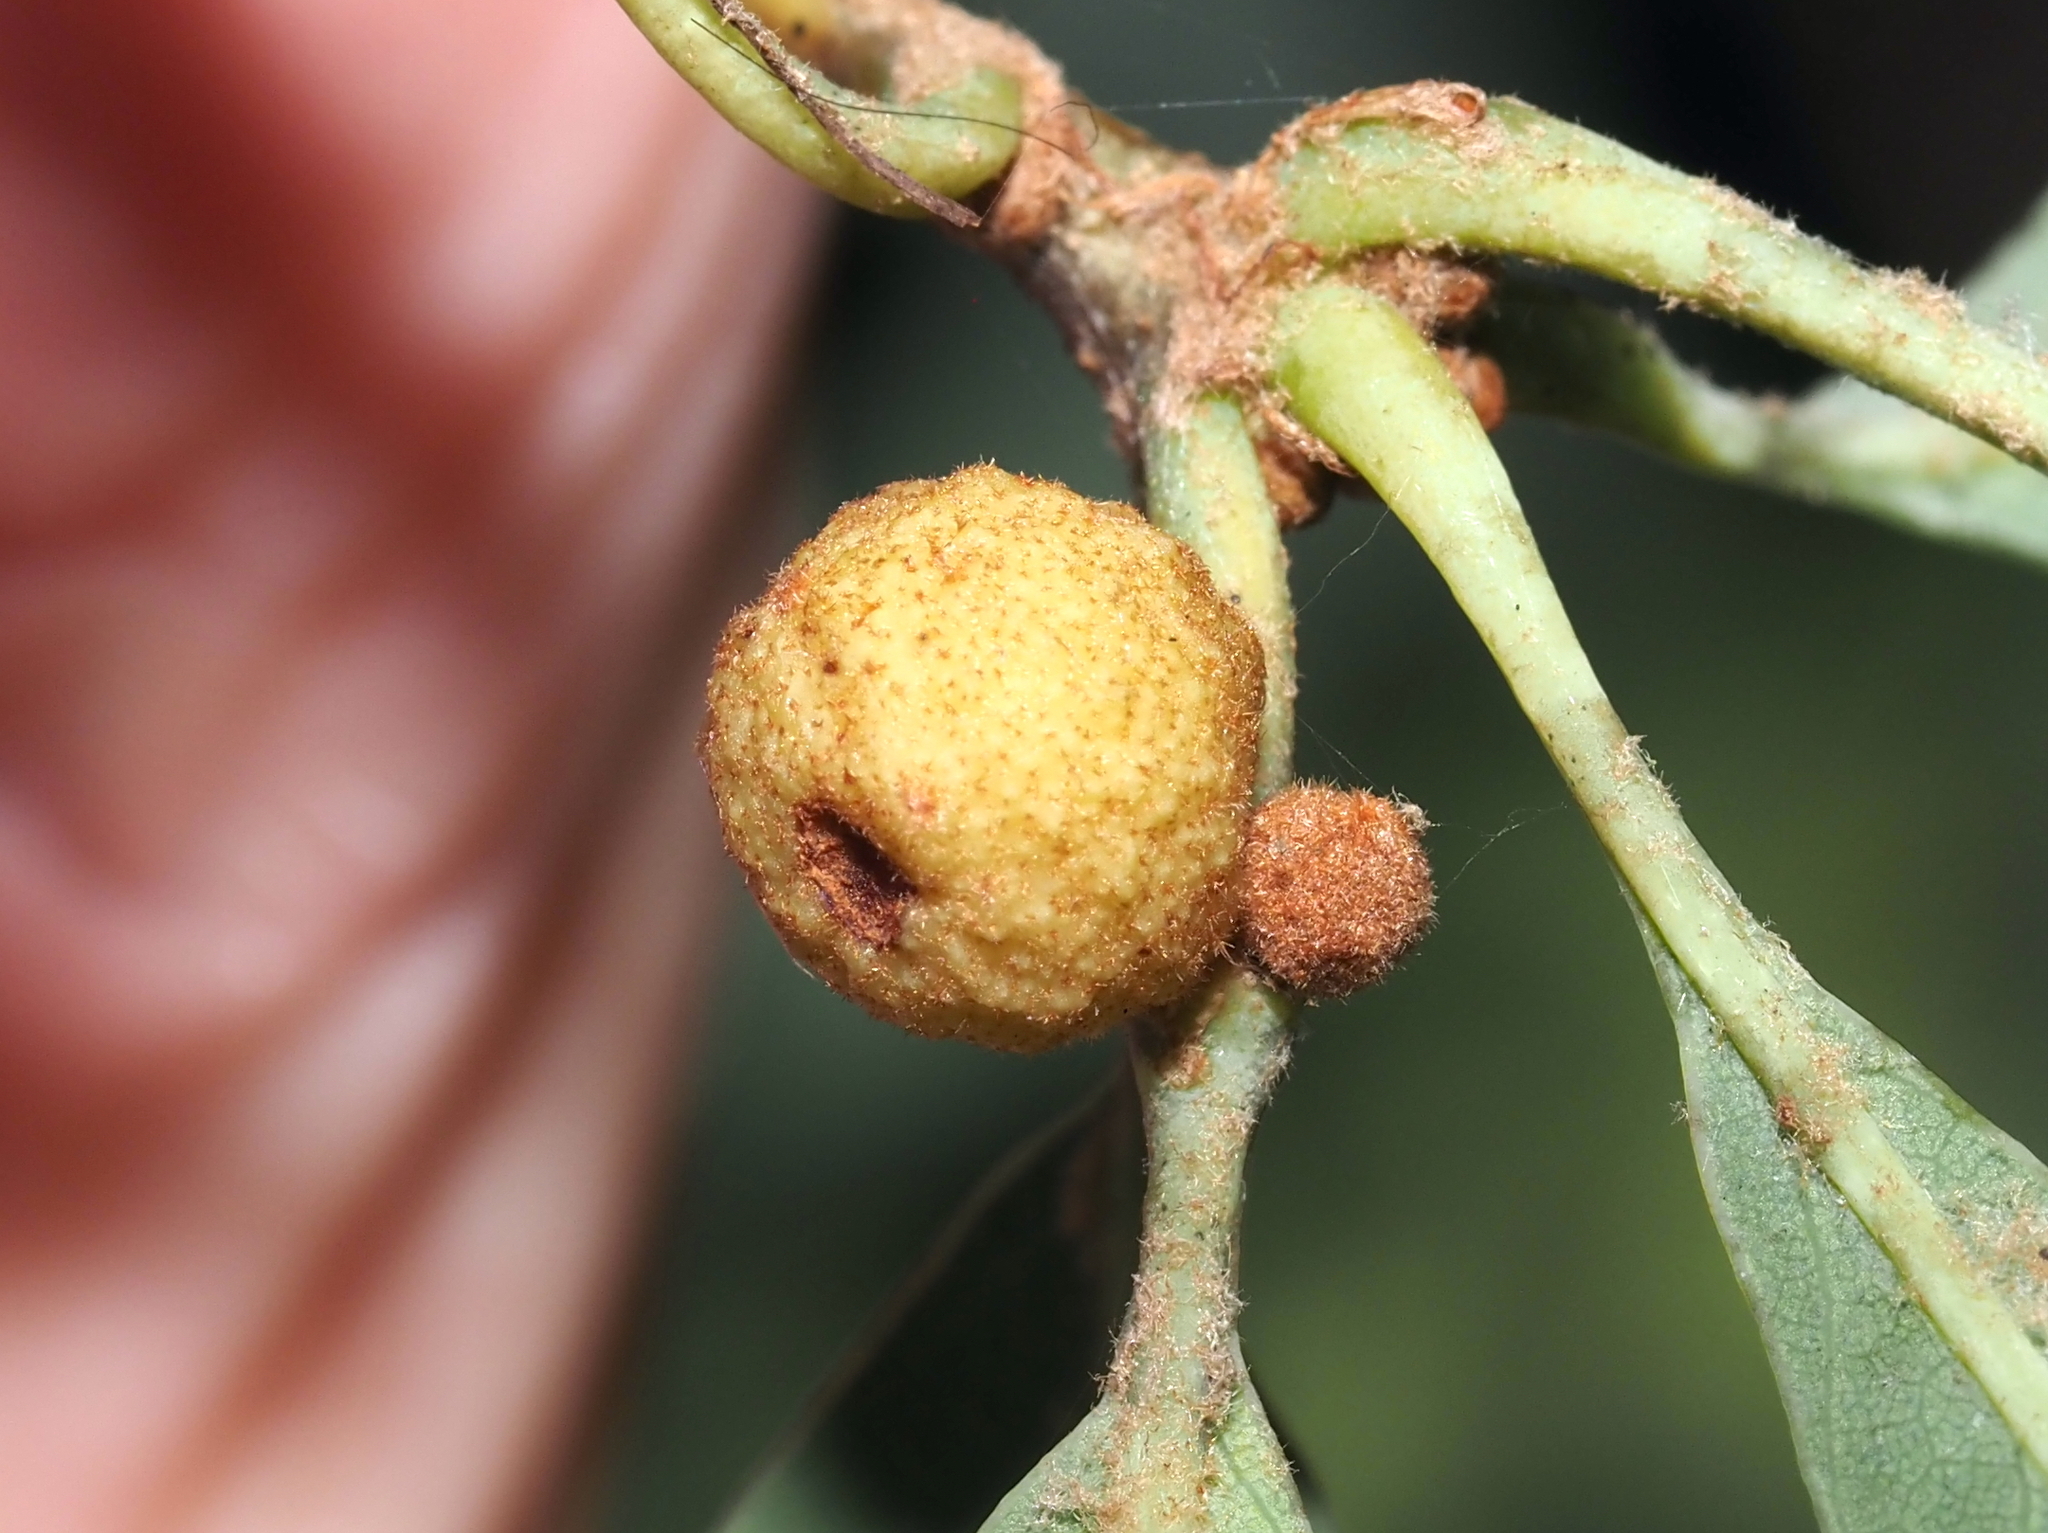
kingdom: Animalia
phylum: Arthropoda
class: Insecta
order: Hymenoptera
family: Cynipidae
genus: Andricus
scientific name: Andricus
